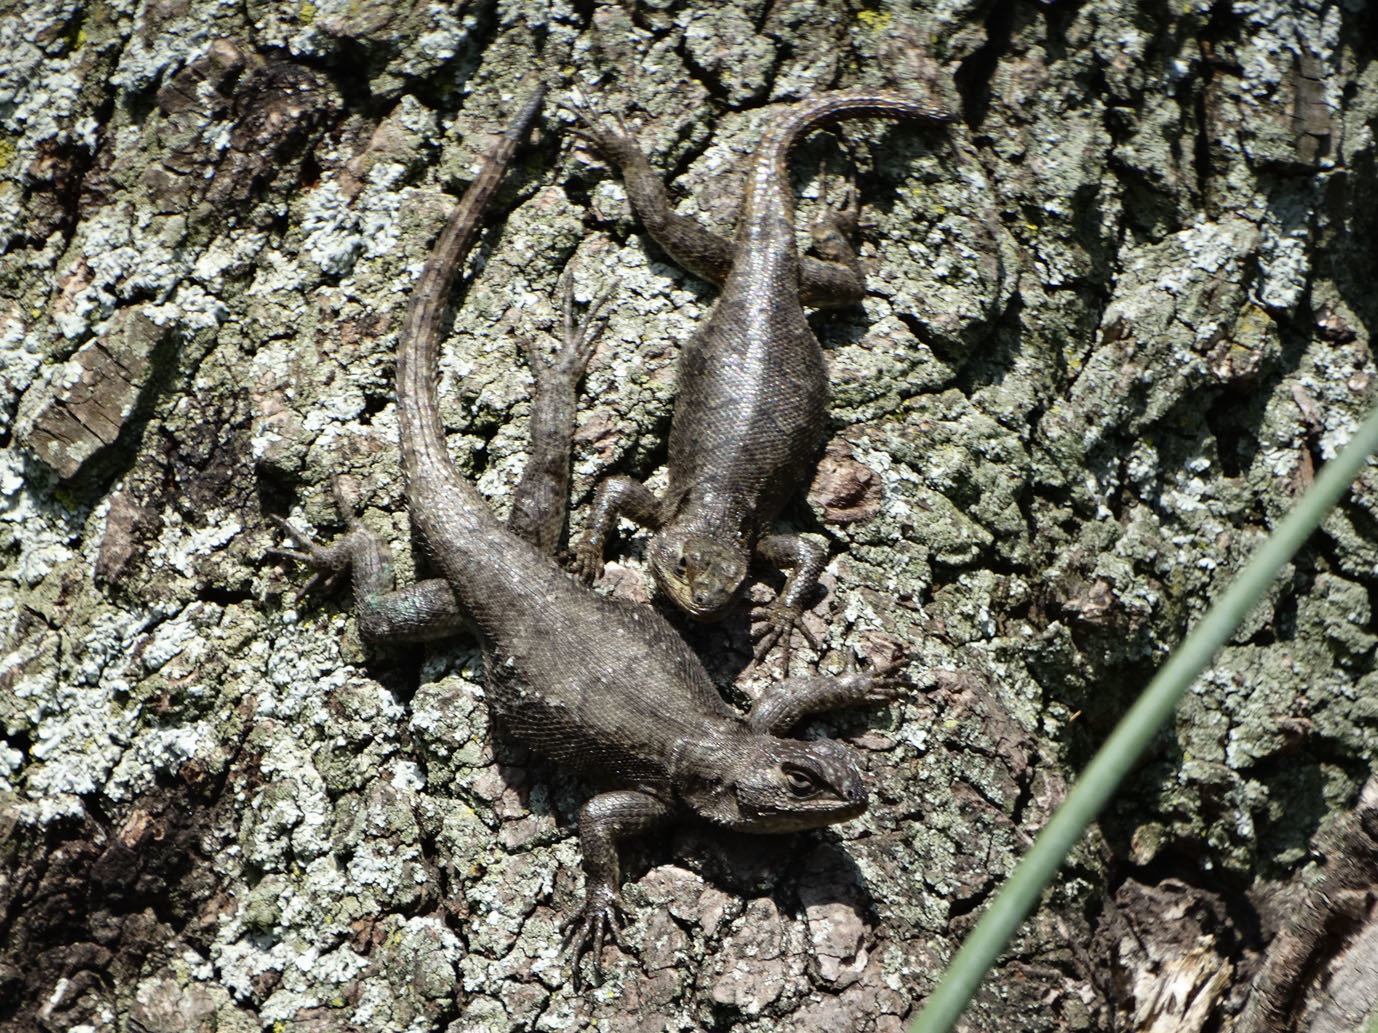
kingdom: Animalia
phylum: Chordata
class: Squamata
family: Phrynosomatidae
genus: Sceloporus
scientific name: Sceloporus grammicus
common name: Mesquite lizard
